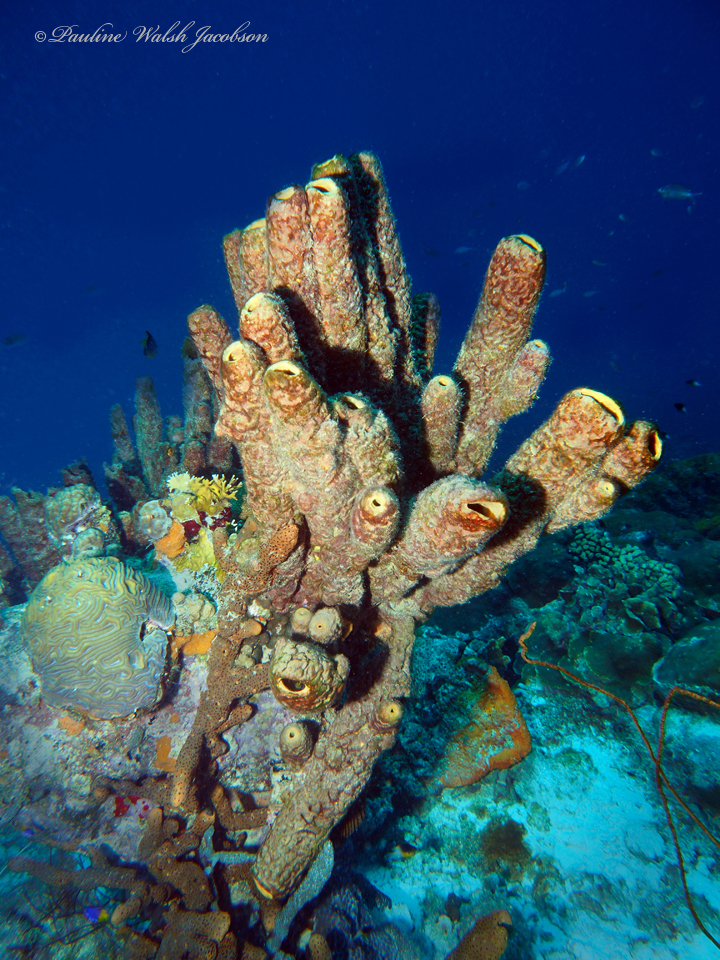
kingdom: Animalia
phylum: Porifera
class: Demospongiae
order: Verongiida
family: Aplysinidae
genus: Aplysina
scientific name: Aplysina archeri
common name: Stove-pipe sponge
